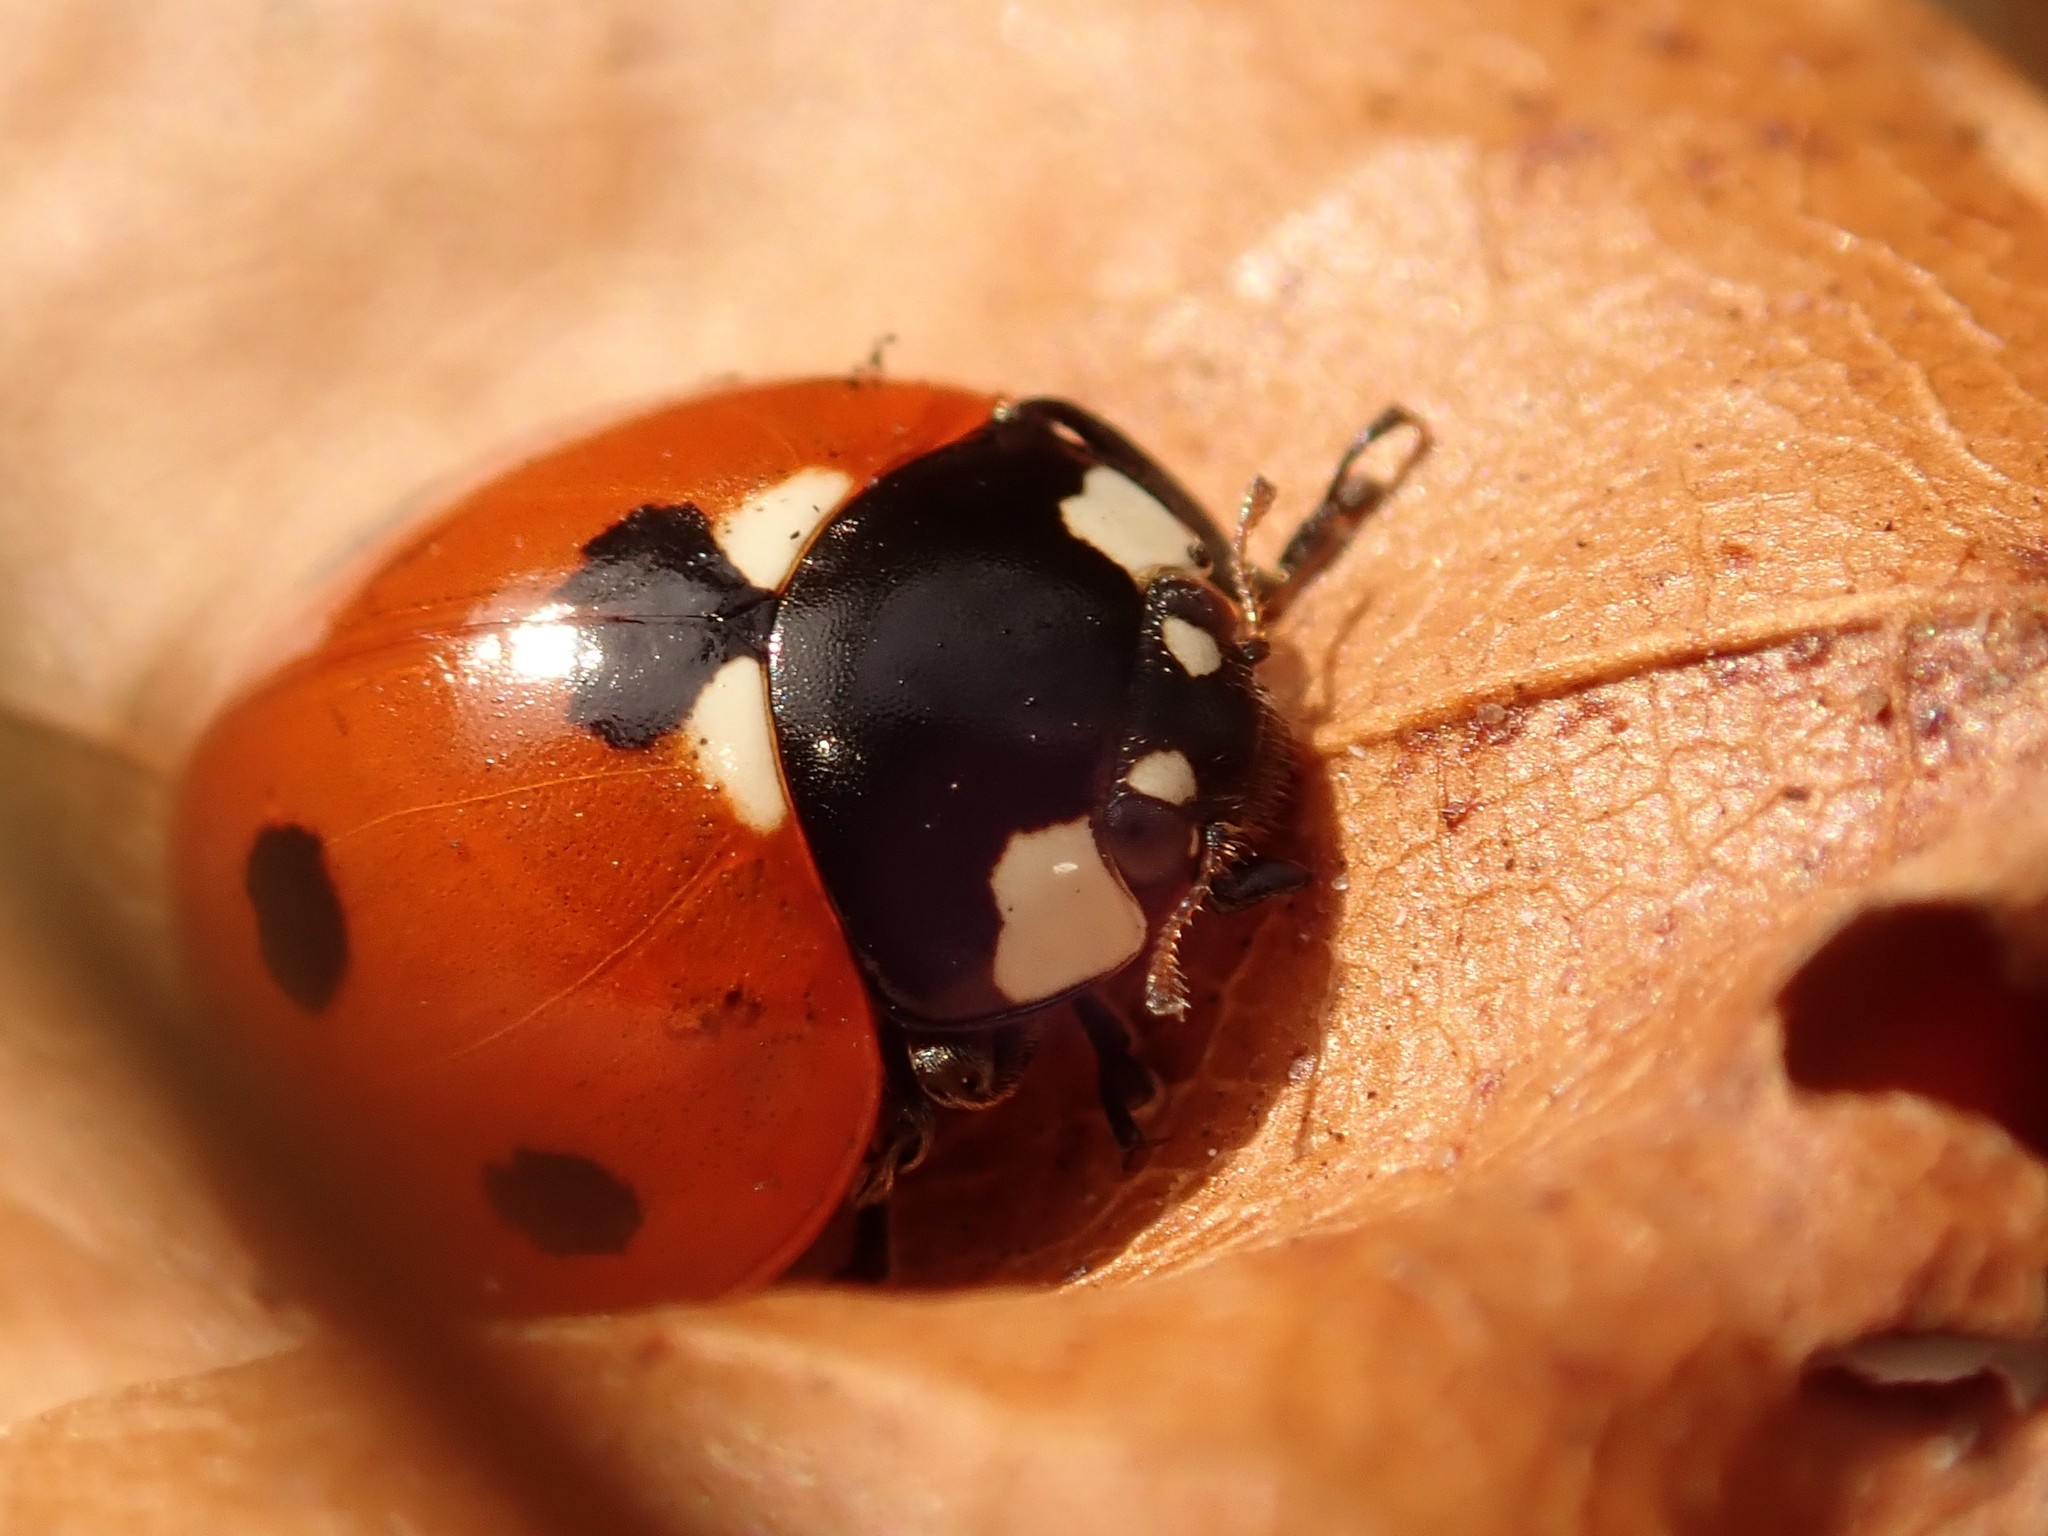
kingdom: Animalia
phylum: Arthropoda
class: Insecta
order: Coleoptera
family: Coccinellidae
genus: Coccinella
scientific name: Coccinella septempunctata
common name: Sevenspotted lady beetle
